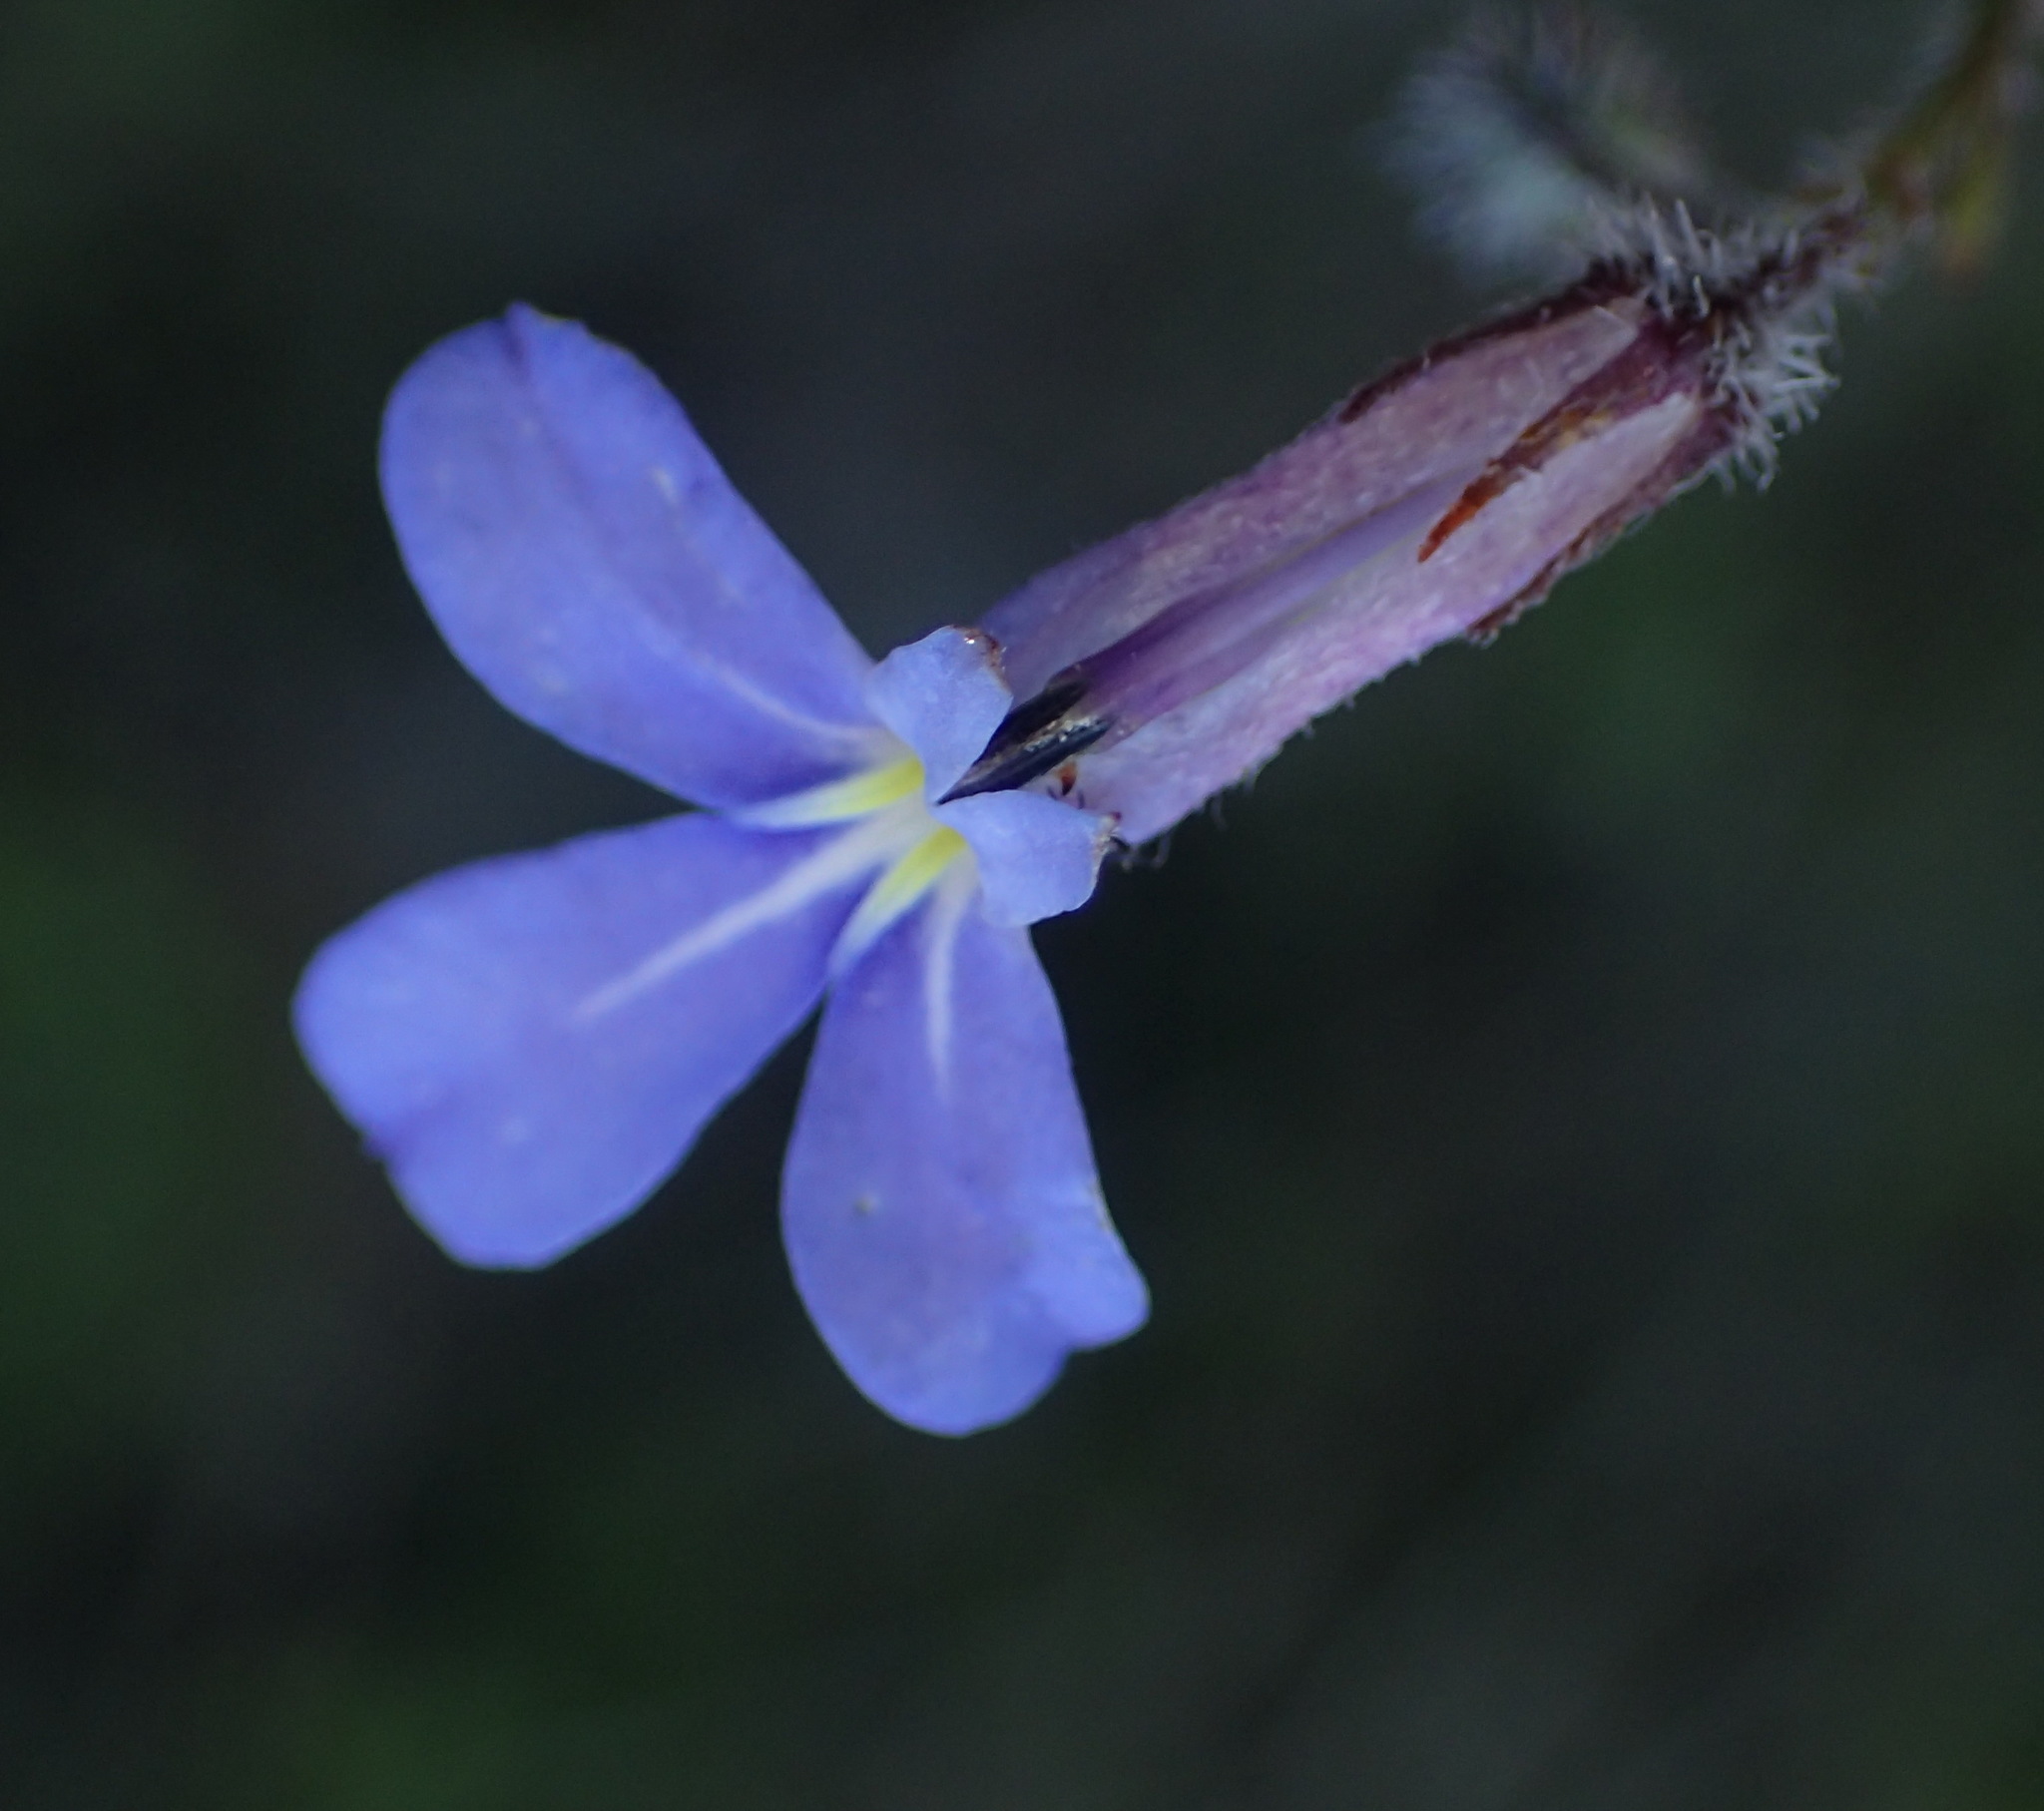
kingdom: Plantae
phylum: Tracheophyta
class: Magnoliopsida
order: Asterales
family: Campanulaceae
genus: Lobelia
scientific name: Lobelia neglecta
